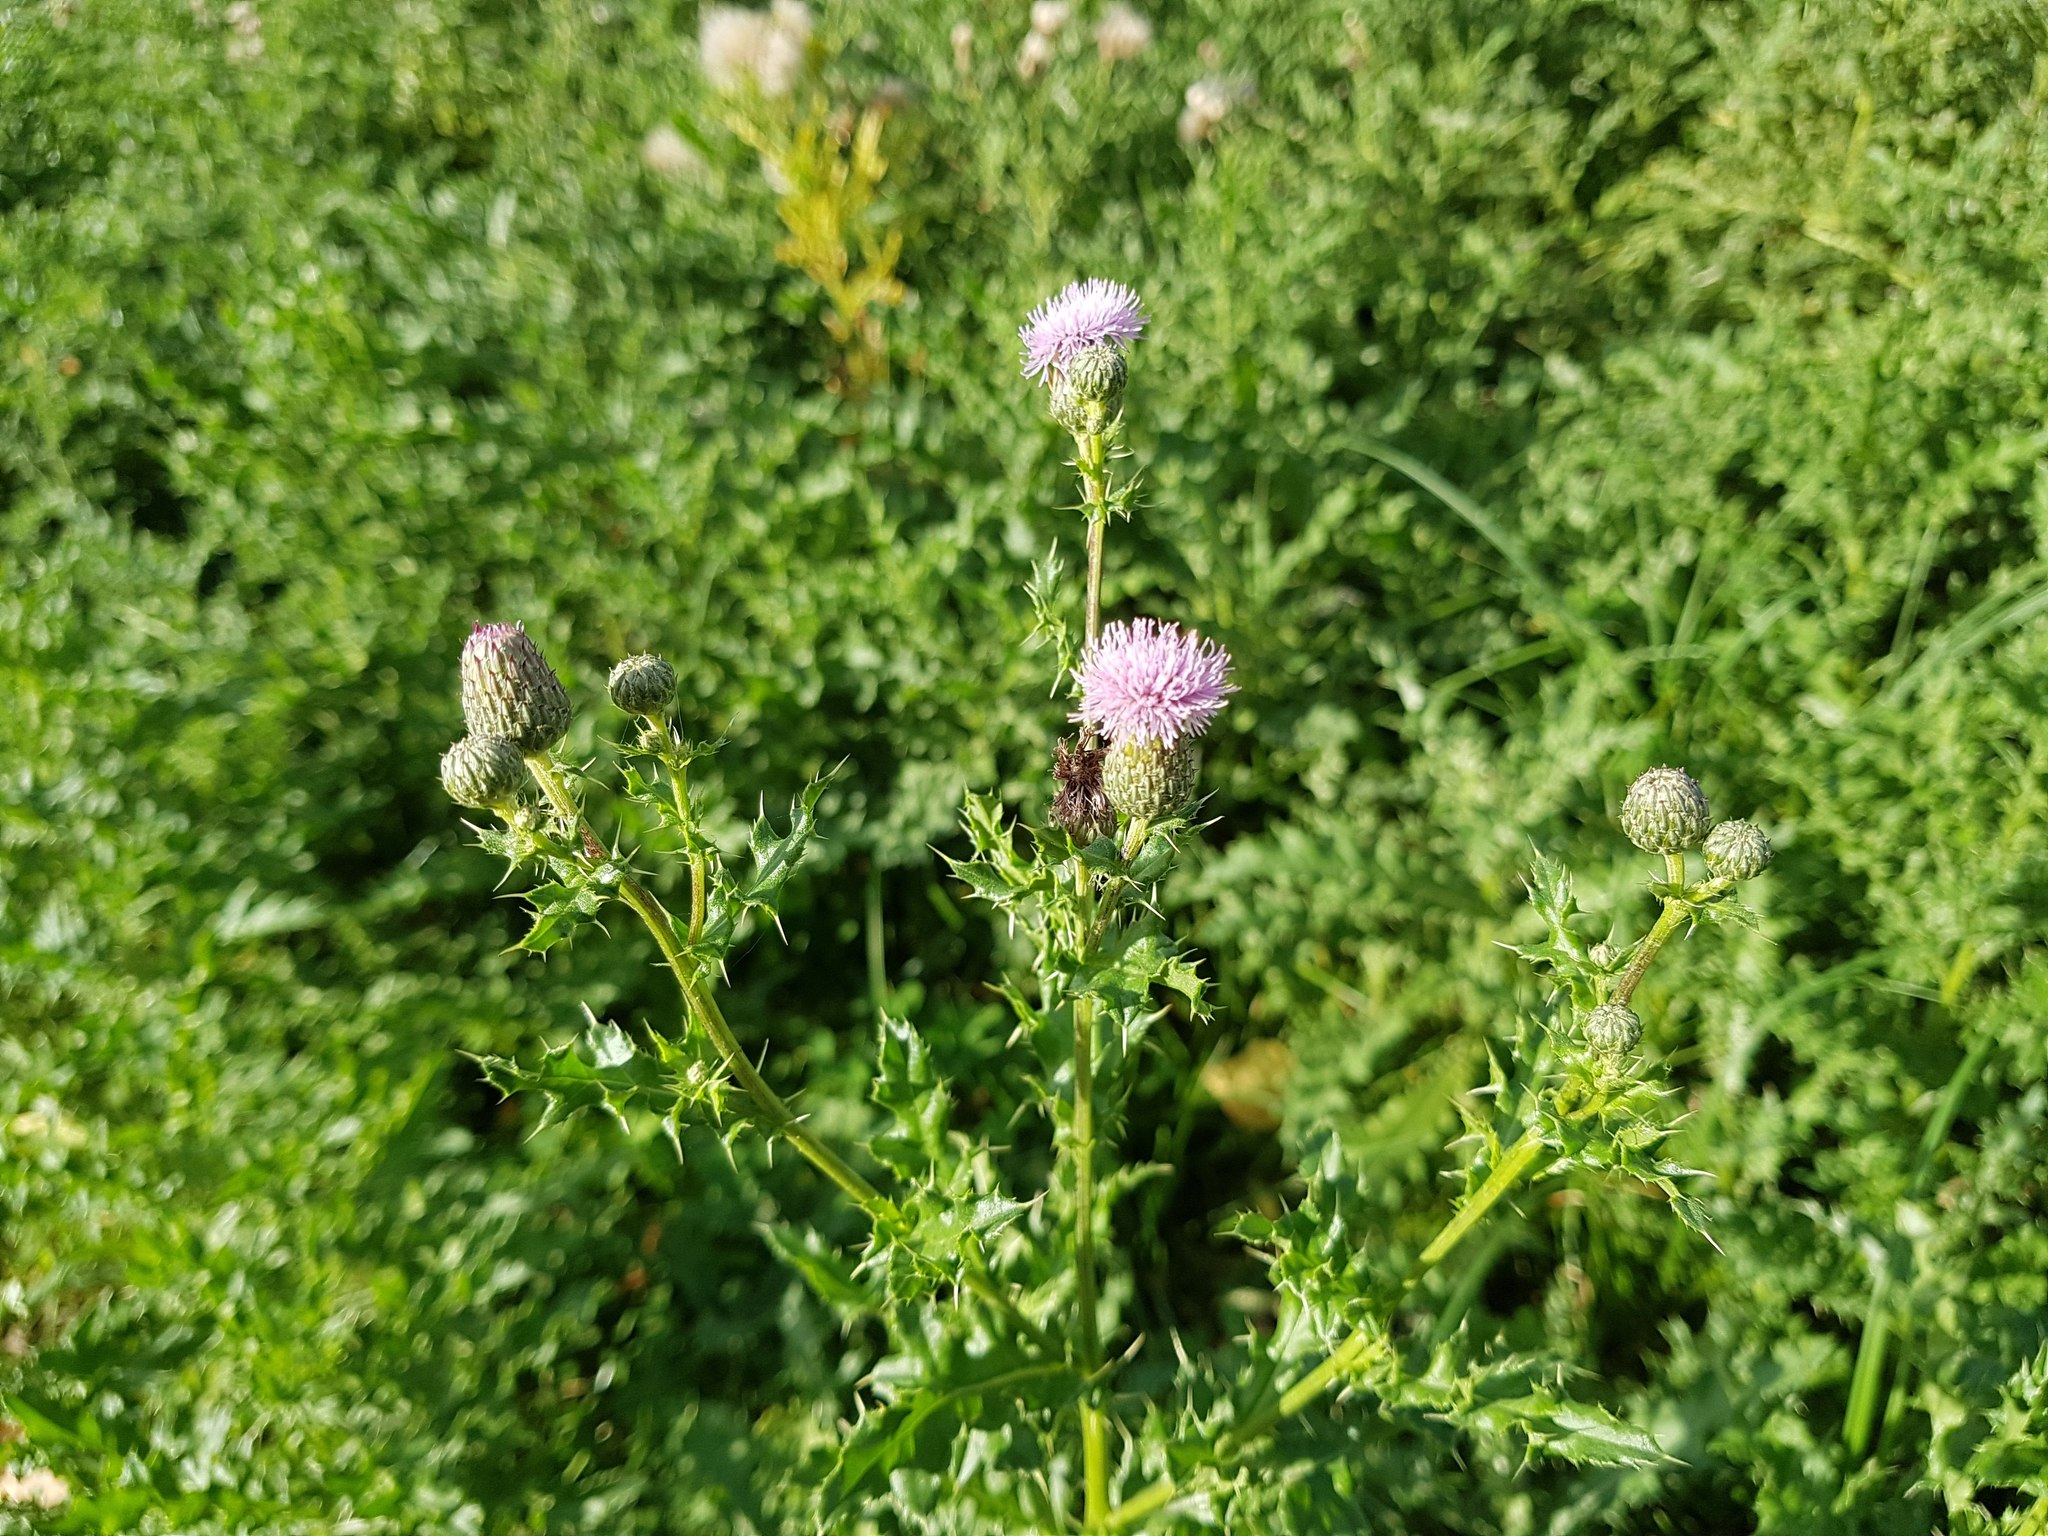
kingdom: Plantae
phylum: Tracheophyta
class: Magnoliopsida
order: Asterales
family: Asteraceae
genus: Cirsium
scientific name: Cirsium arvense
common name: Creeping thistle
